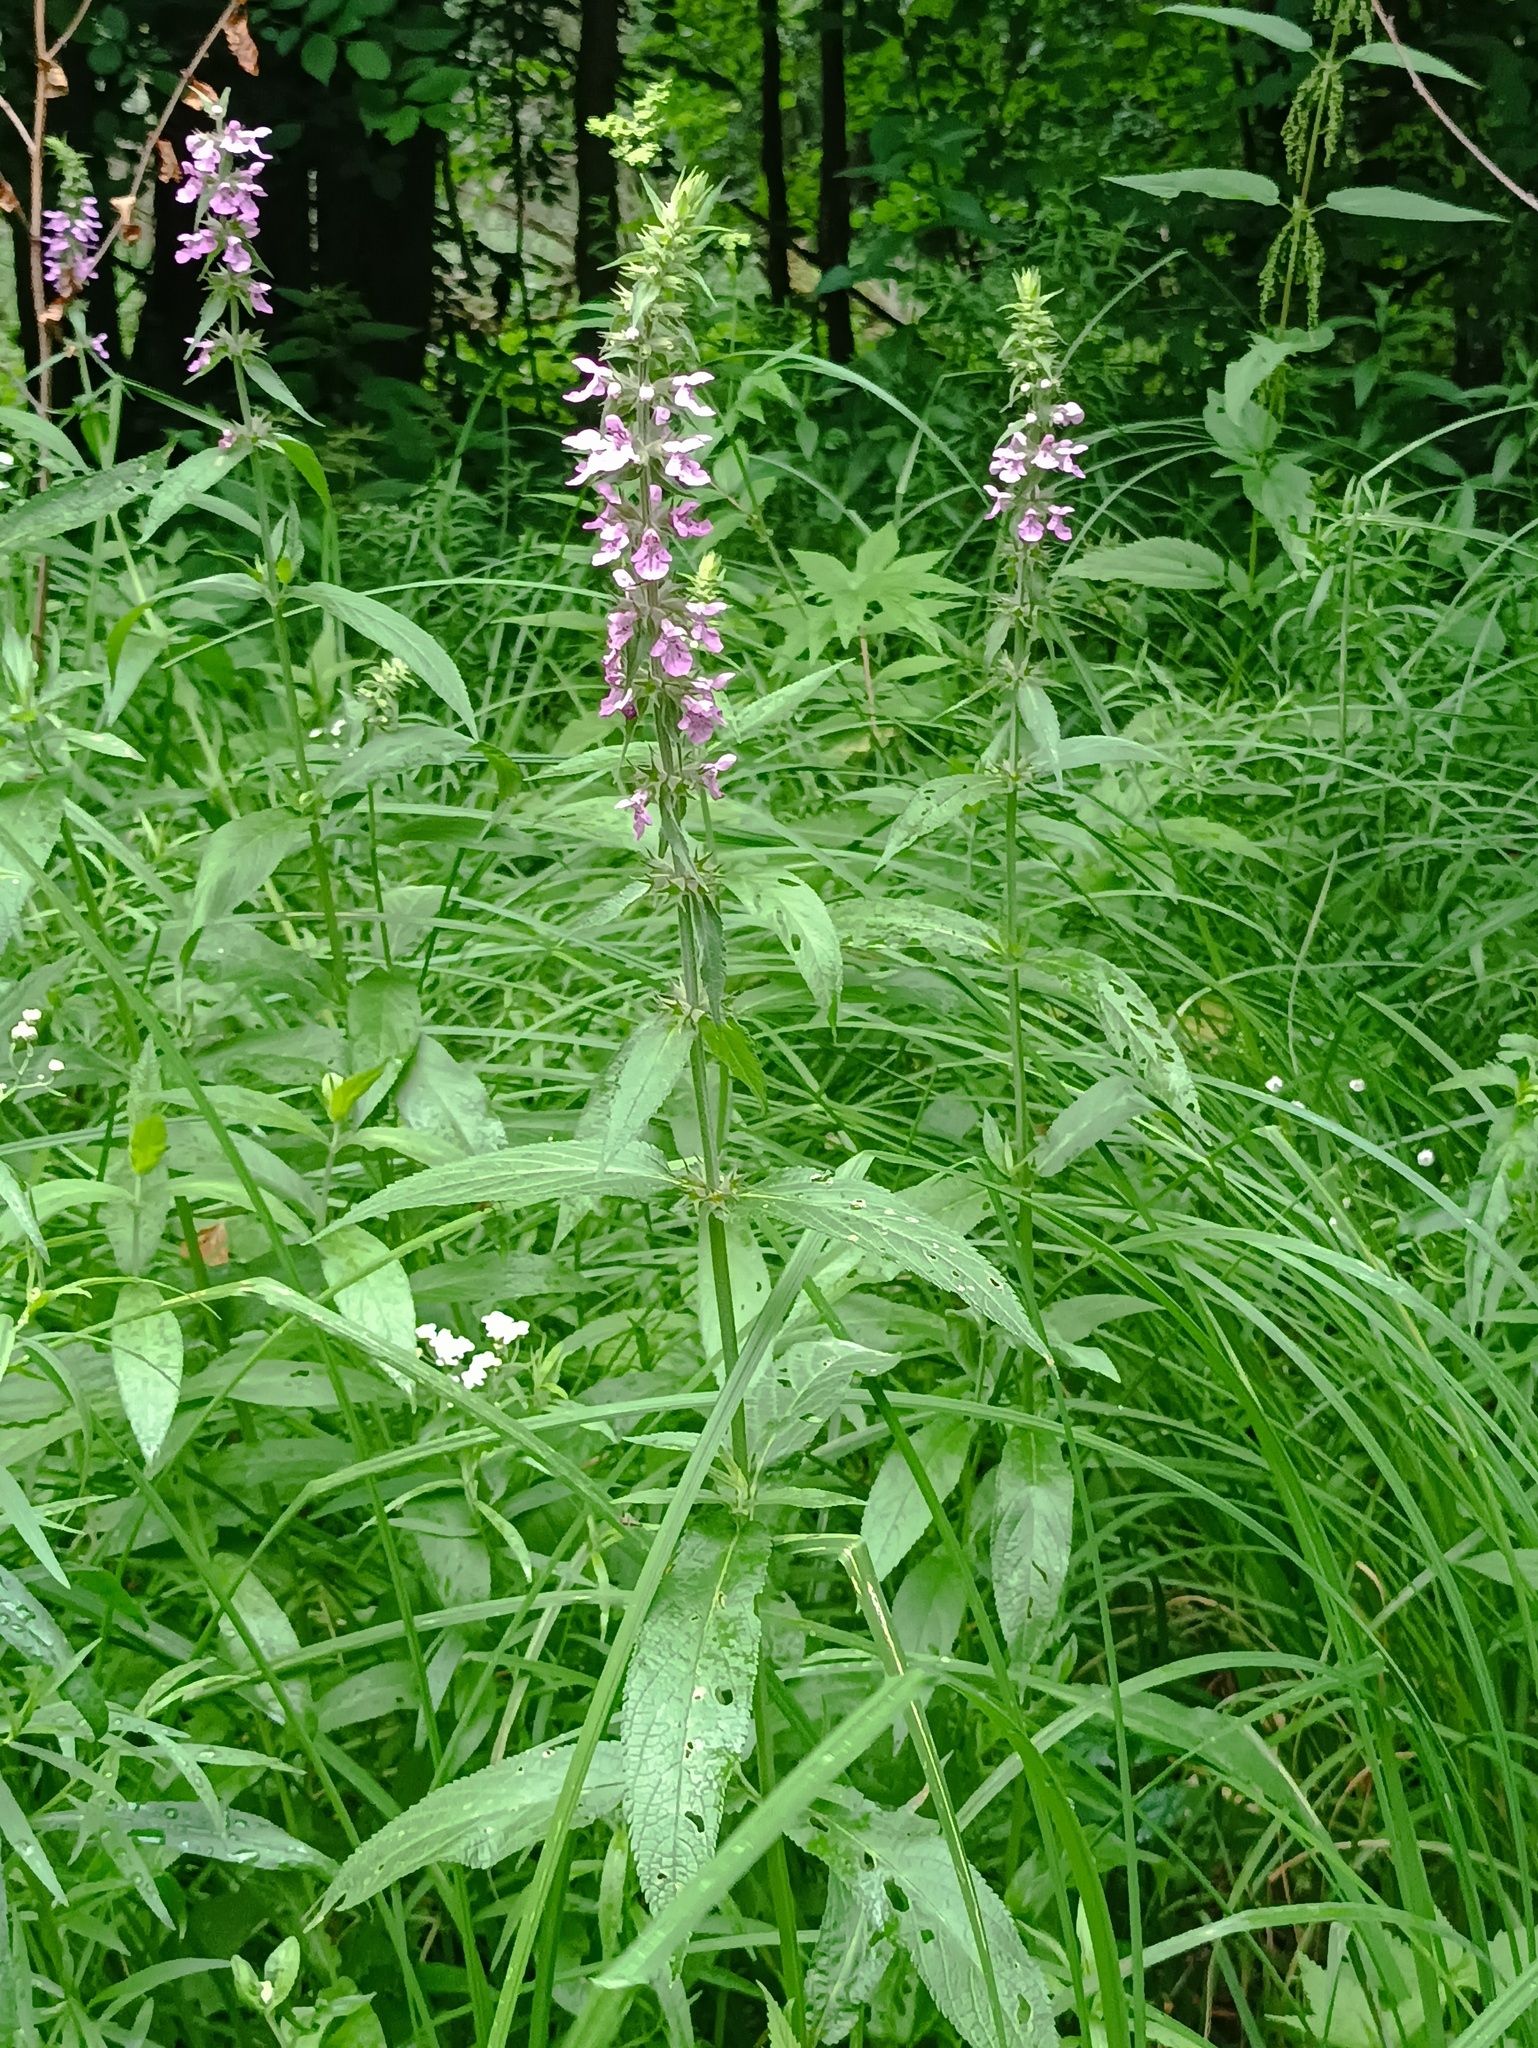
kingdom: Plantae
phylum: Tracheophyta
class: Magnoliopsida
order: Lamiales
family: Lamiaceae
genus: Stachys
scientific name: Stachys palustris
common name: Marsh woundwort
